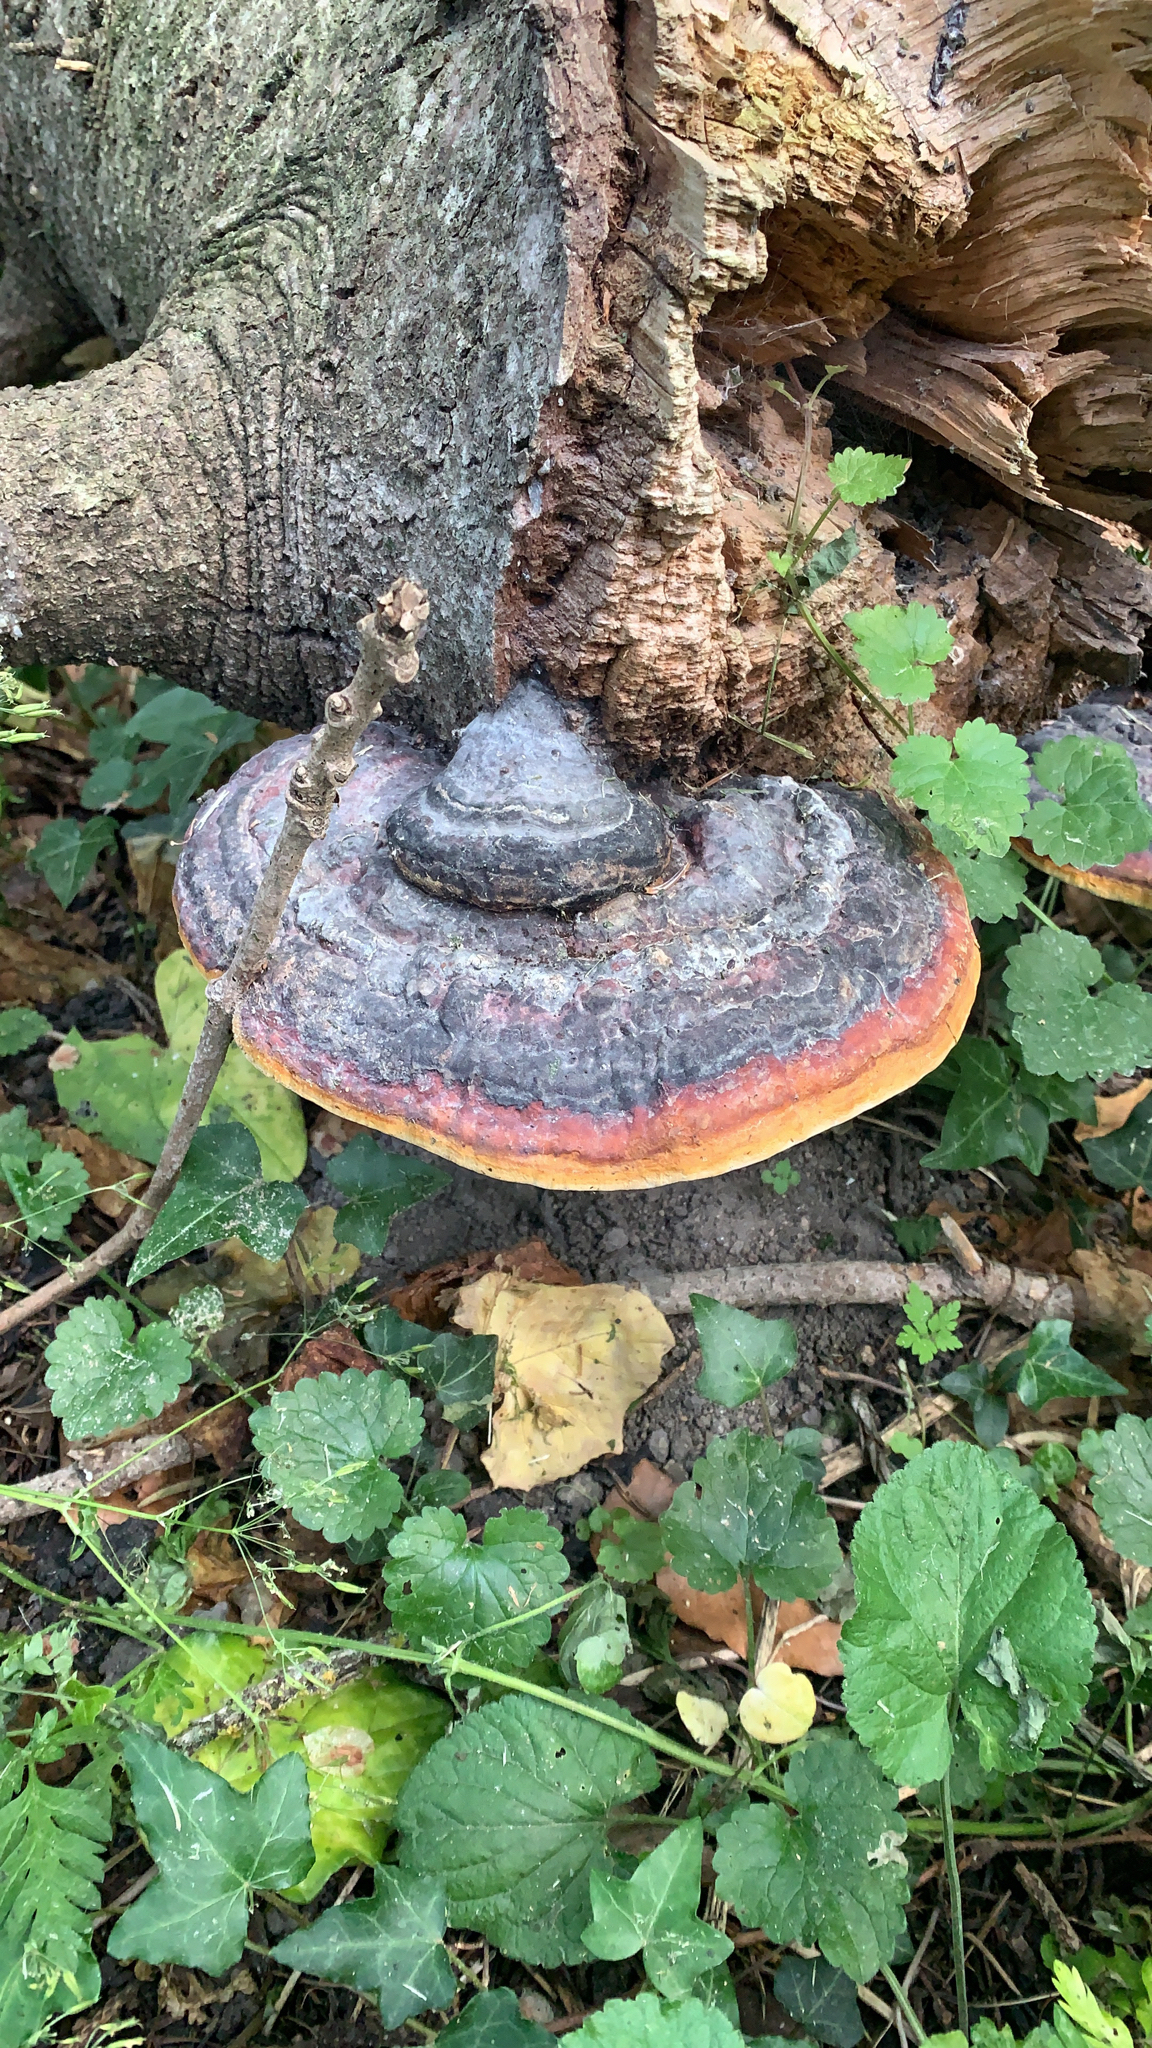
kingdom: Fungi
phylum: Basidiomycota
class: Agaricomycetes
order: Polyporales
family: Fomitopsidaceae
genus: Fomitopsis
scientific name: Fomitopsis pinicola
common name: Red-belted bracket
